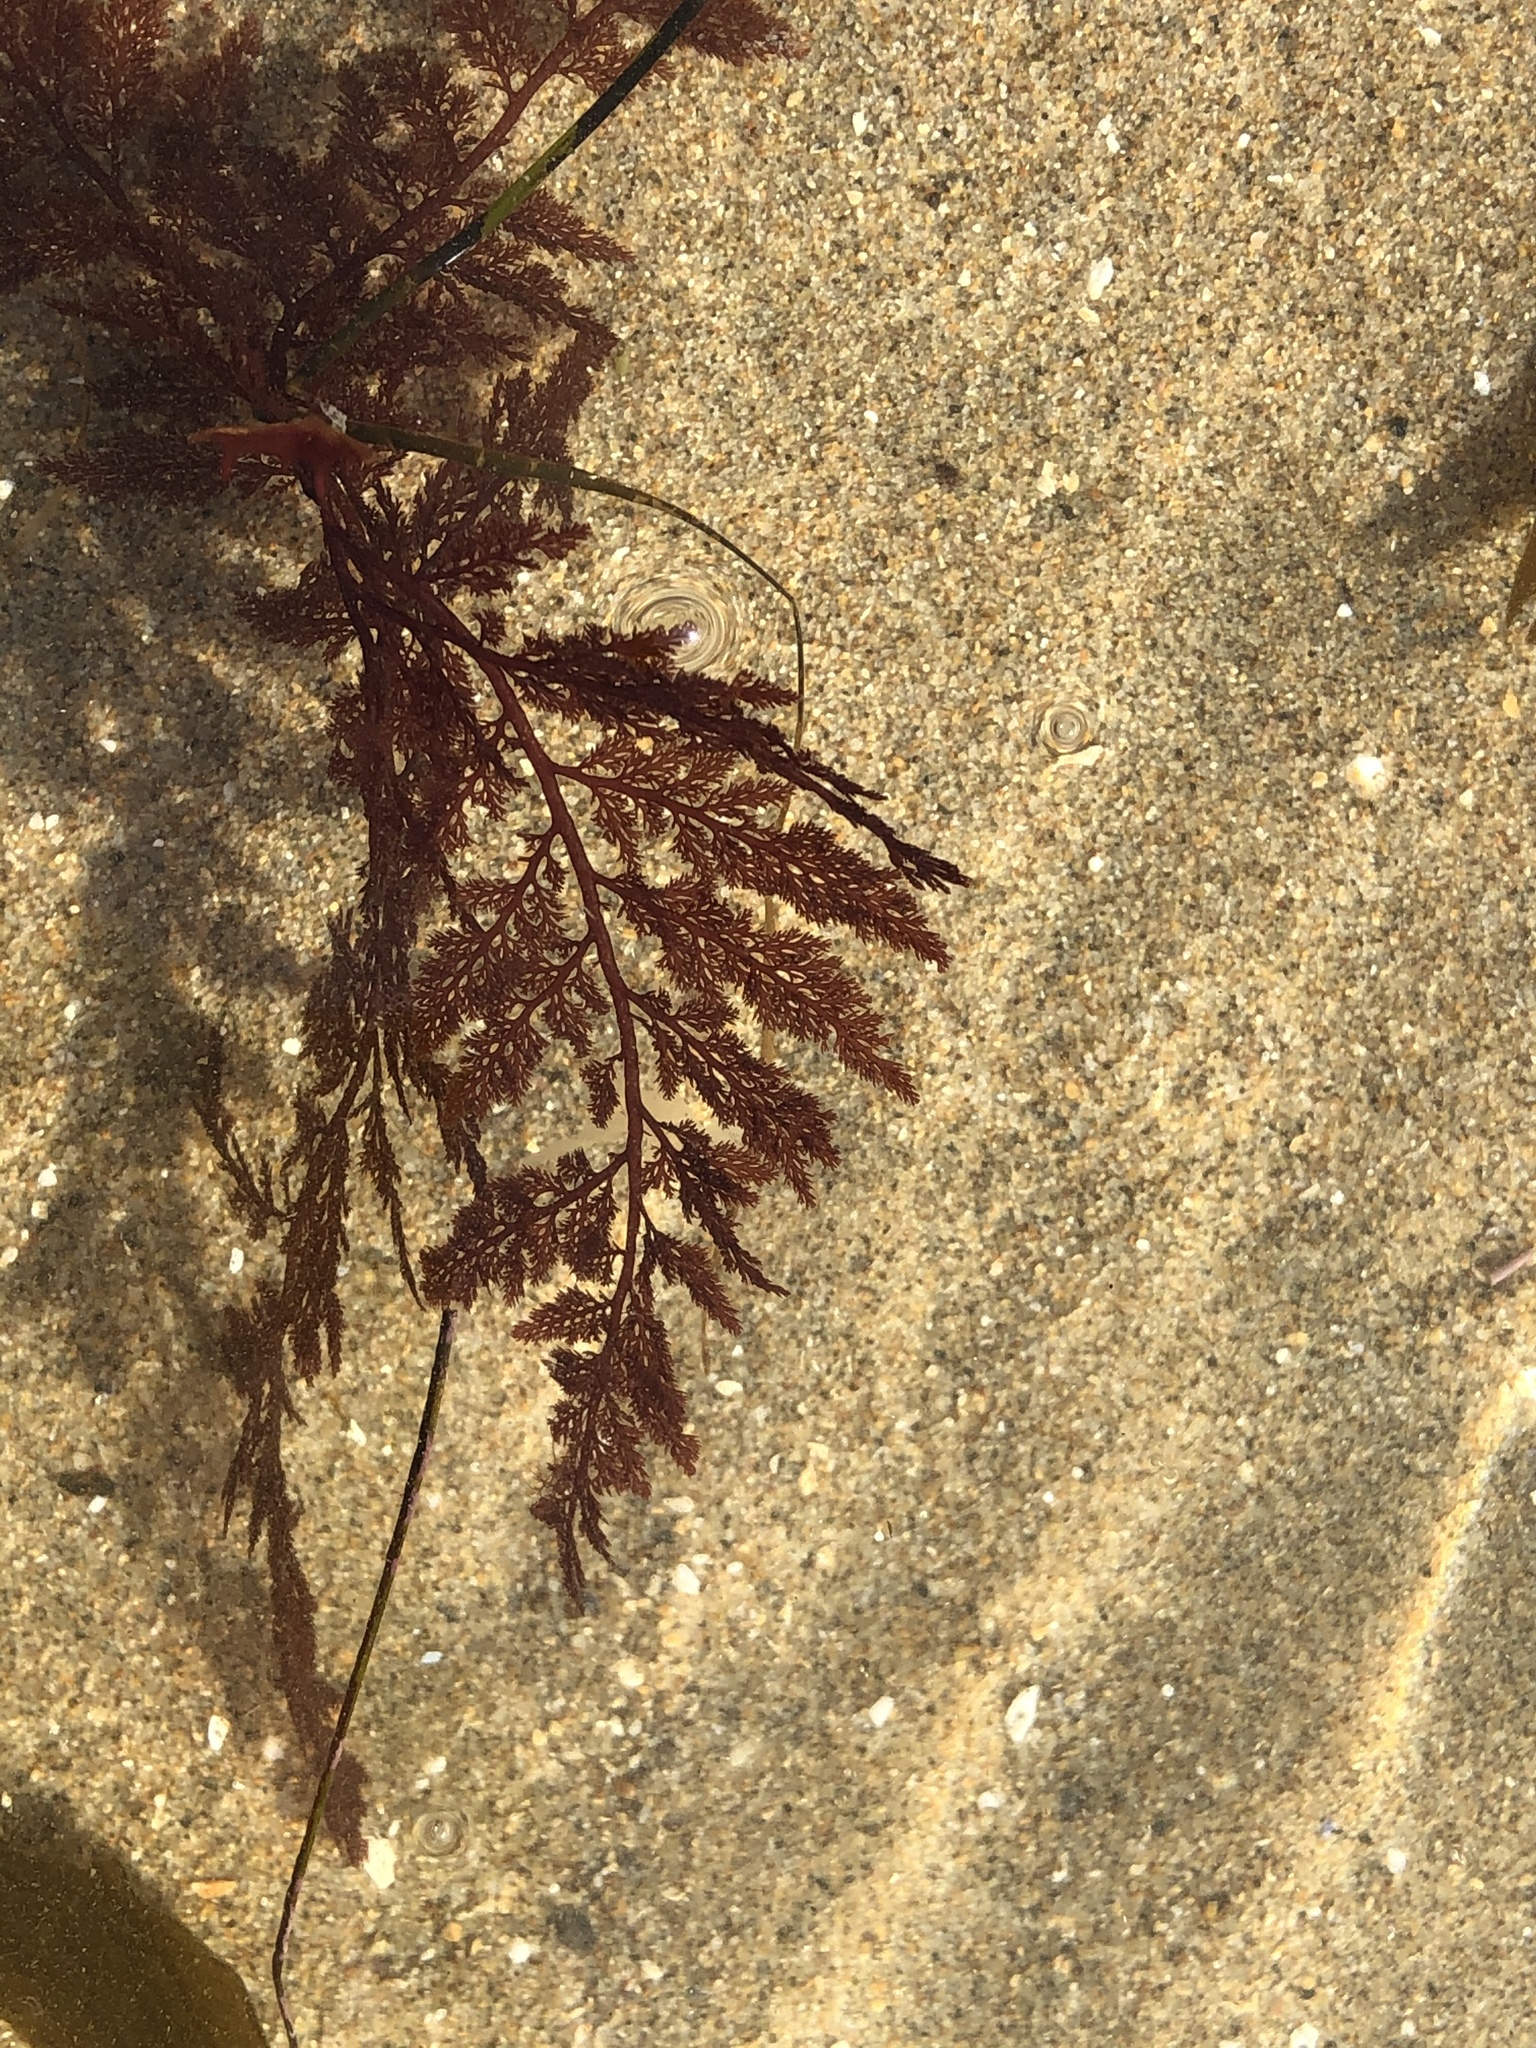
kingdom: Plantae
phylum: Rhodophyta
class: Florideophyceae
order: Ceramiales
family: Ceramiaceae
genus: Microcladia
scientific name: Microcladia coulteri
